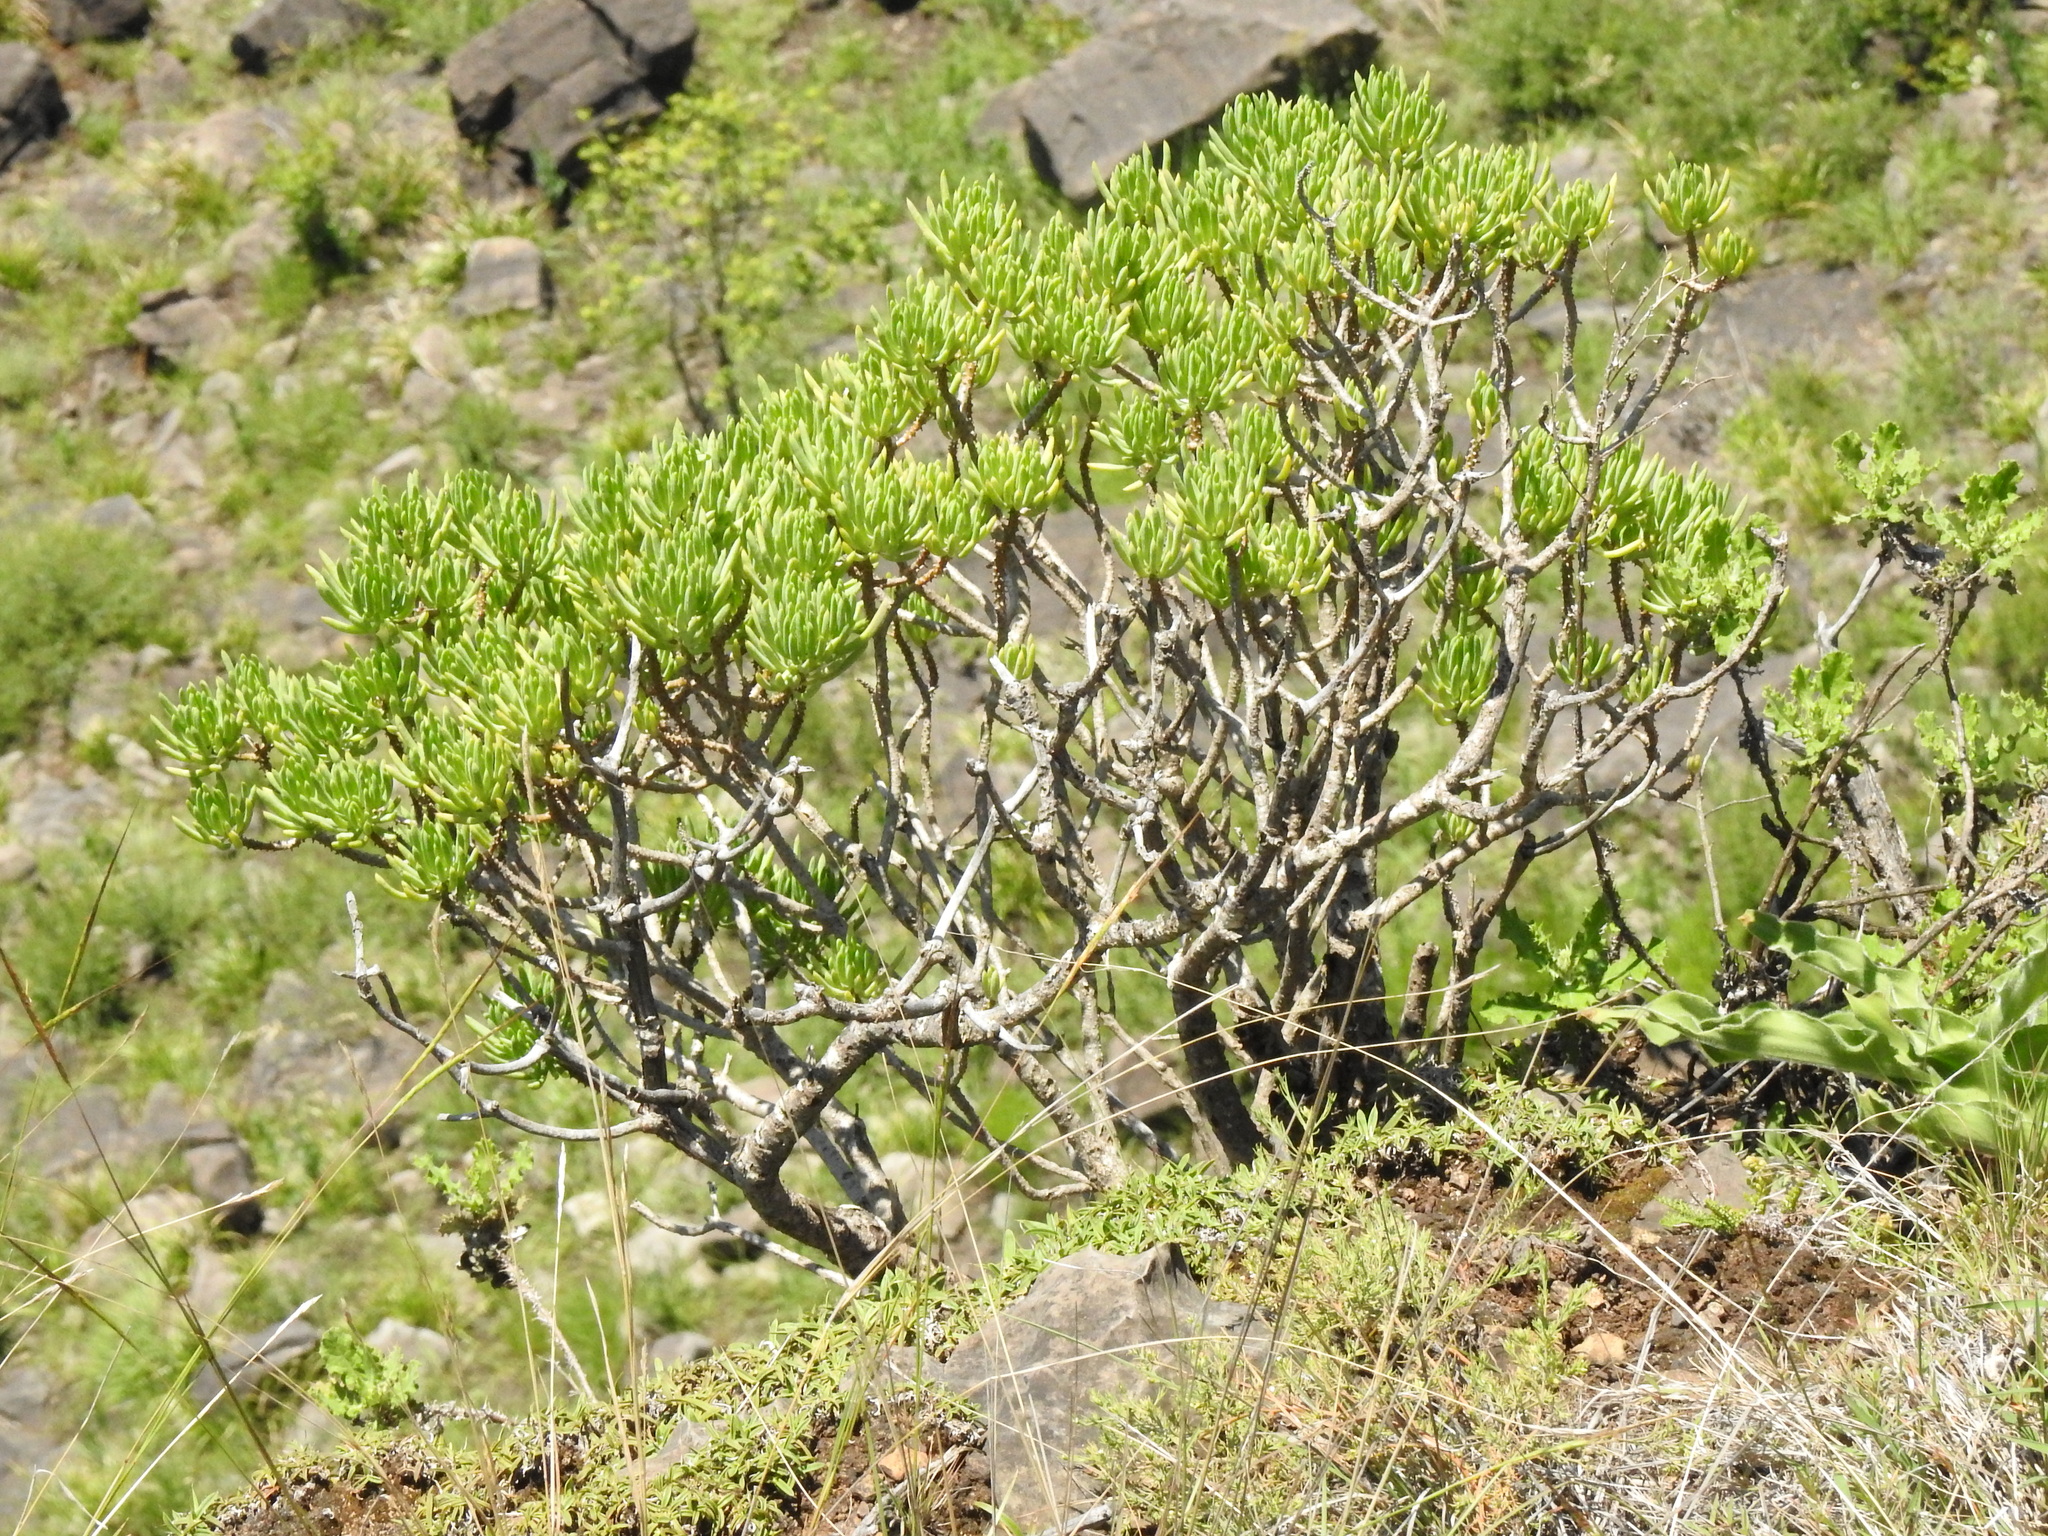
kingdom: Plantae
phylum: Tracheophyta
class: Magnoliopsida
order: Asterales
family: Asteraceae
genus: Kleinia
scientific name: Kleinia barbertonica
